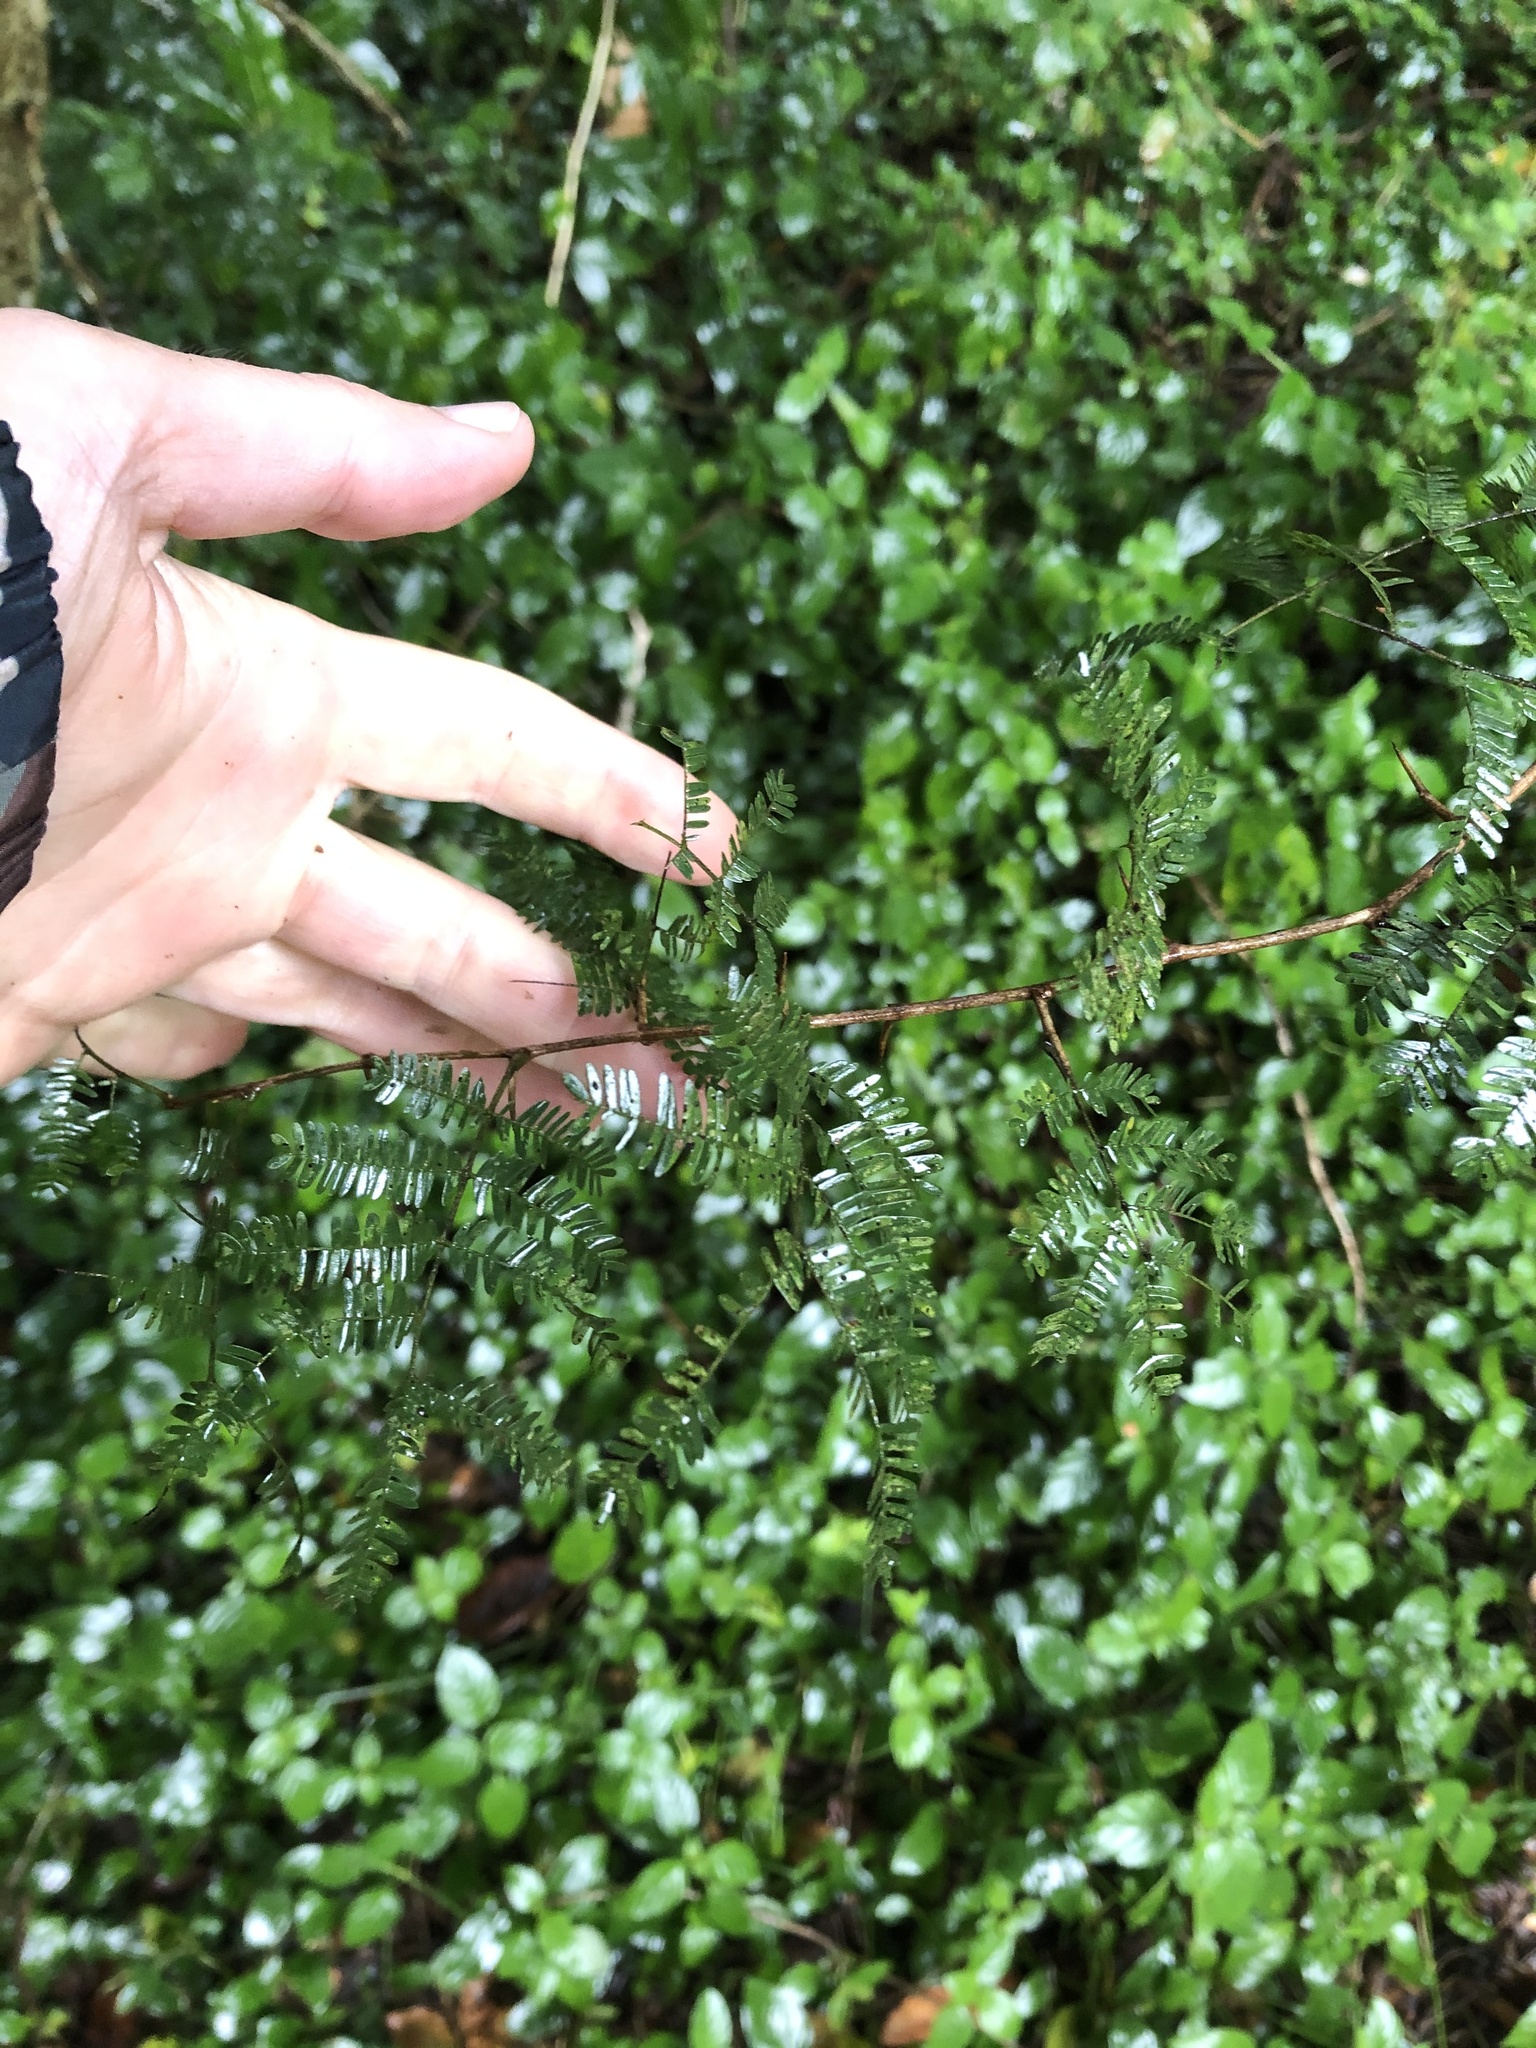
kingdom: Plantae
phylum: Tracheophyta
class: Magnoliopsida
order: Fabales
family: Fabaceae
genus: Dichrostachys
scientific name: Dichrostachys cinerea
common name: Sicklebush
